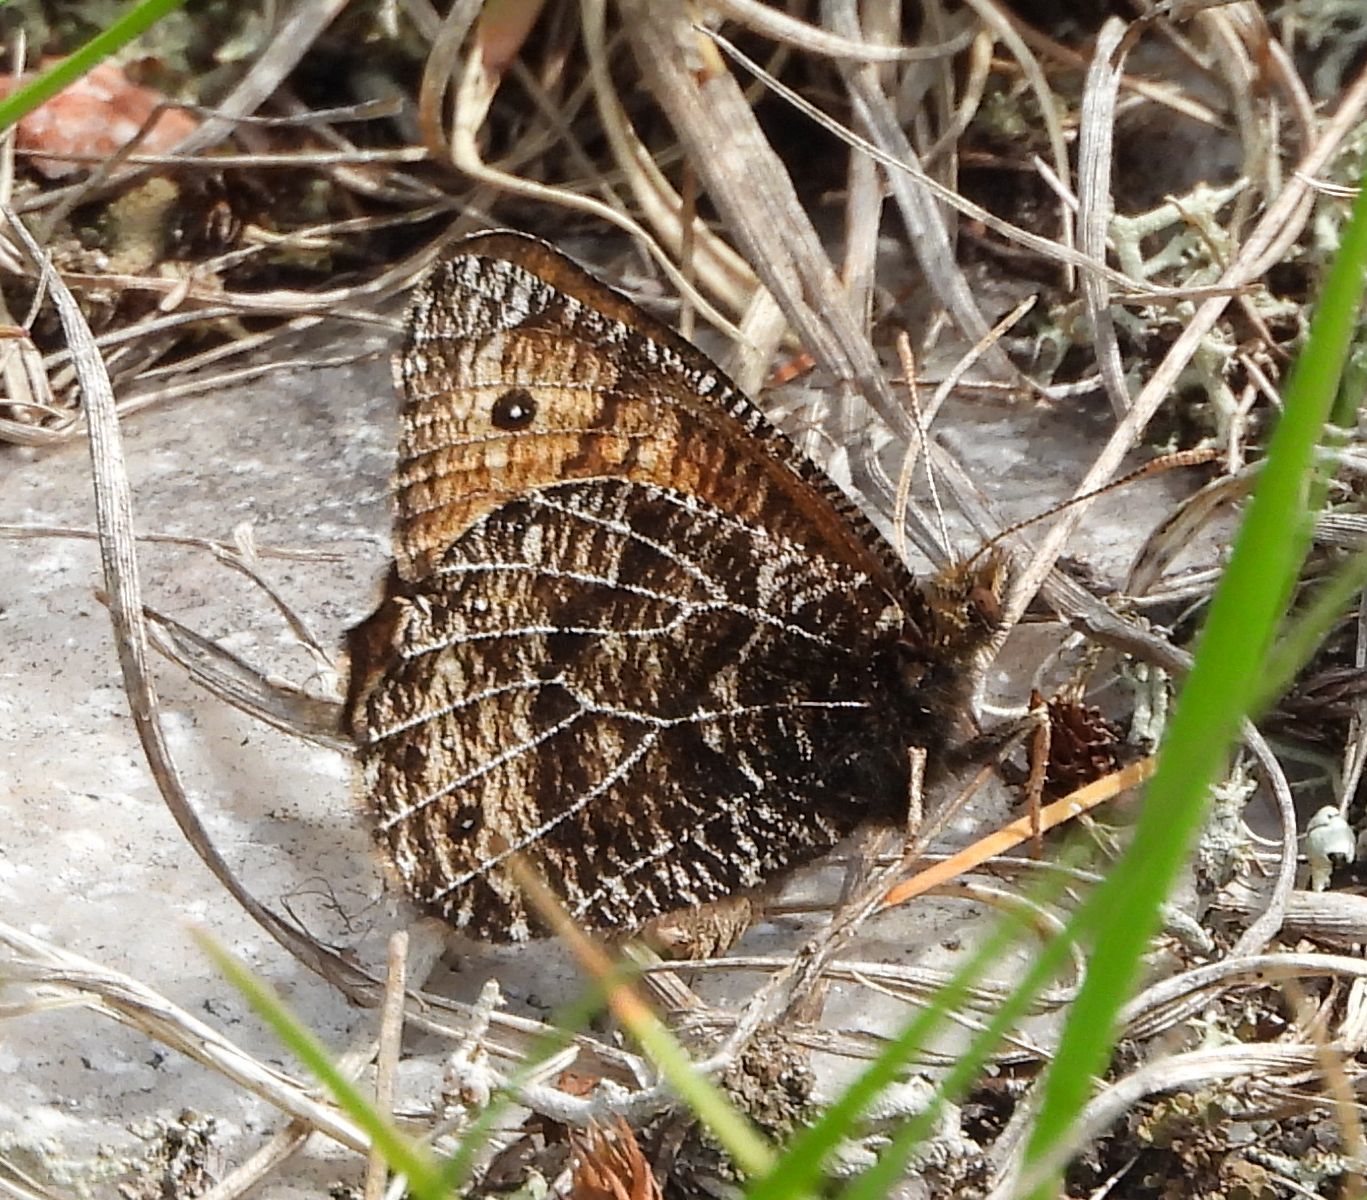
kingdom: Animalia
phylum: Arthropoda
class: Insecta
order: Lepidoptera
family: Nymphalidae
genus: Oeneis
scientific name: Oeneis chryxus
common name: Chryxus arctic
